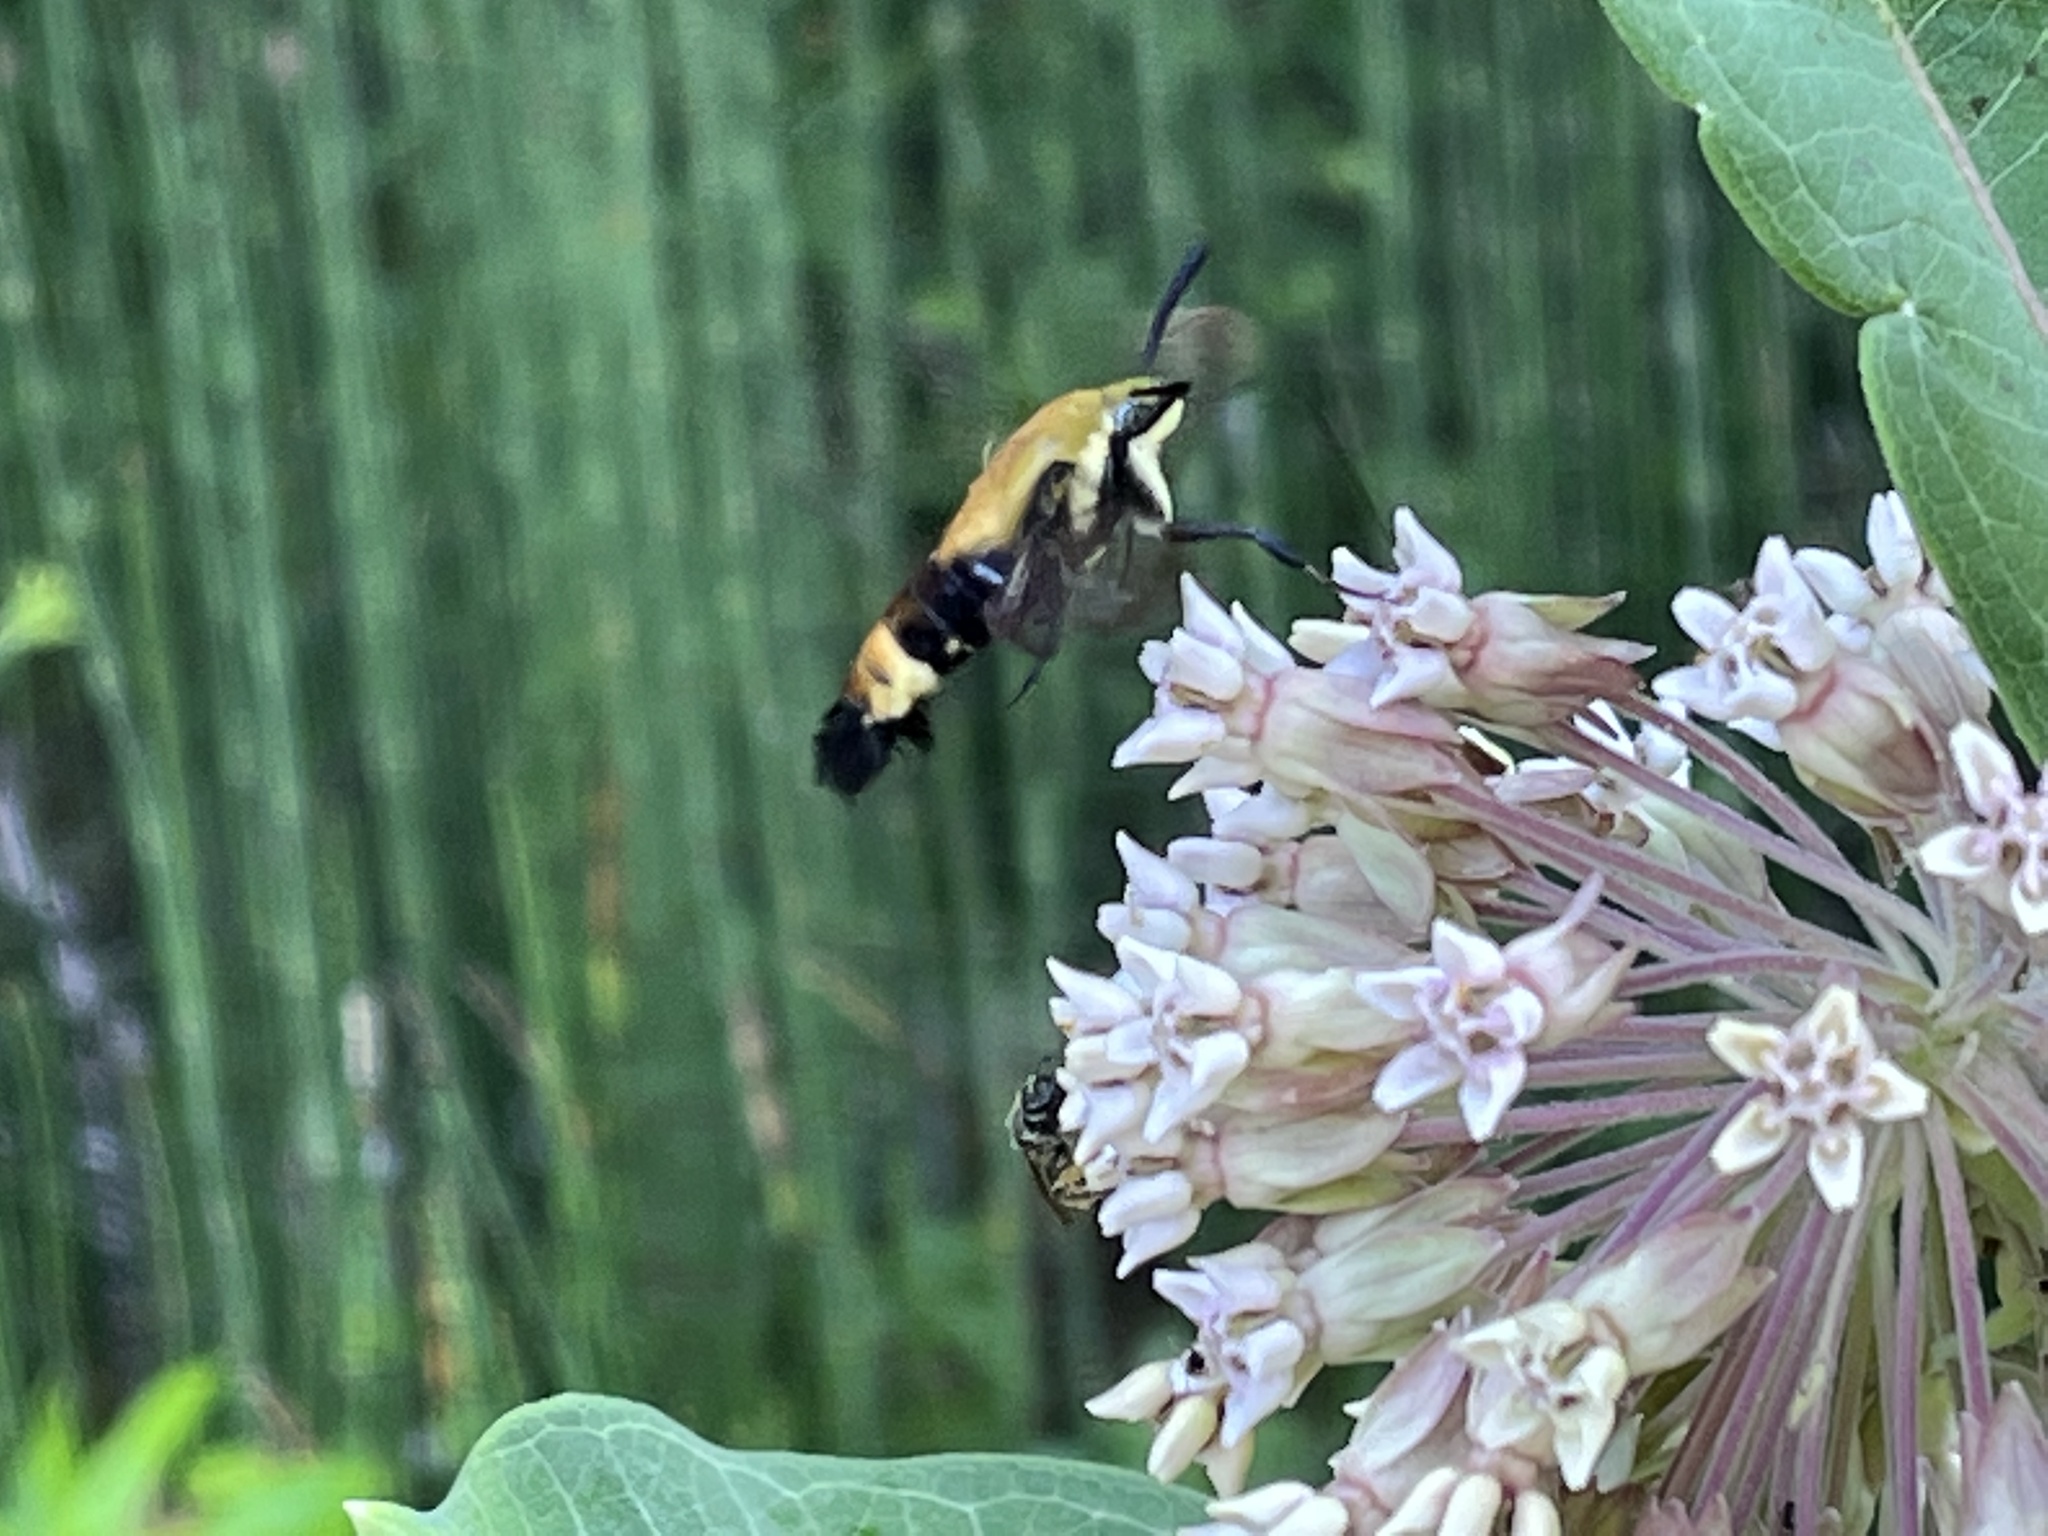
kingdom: Animalia
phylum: Arthropoda
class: Insecta
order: Lepidoptera
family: Sphingidae
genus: Hemaris
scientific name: Hemaris diffinis
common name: Bumblebee moth
